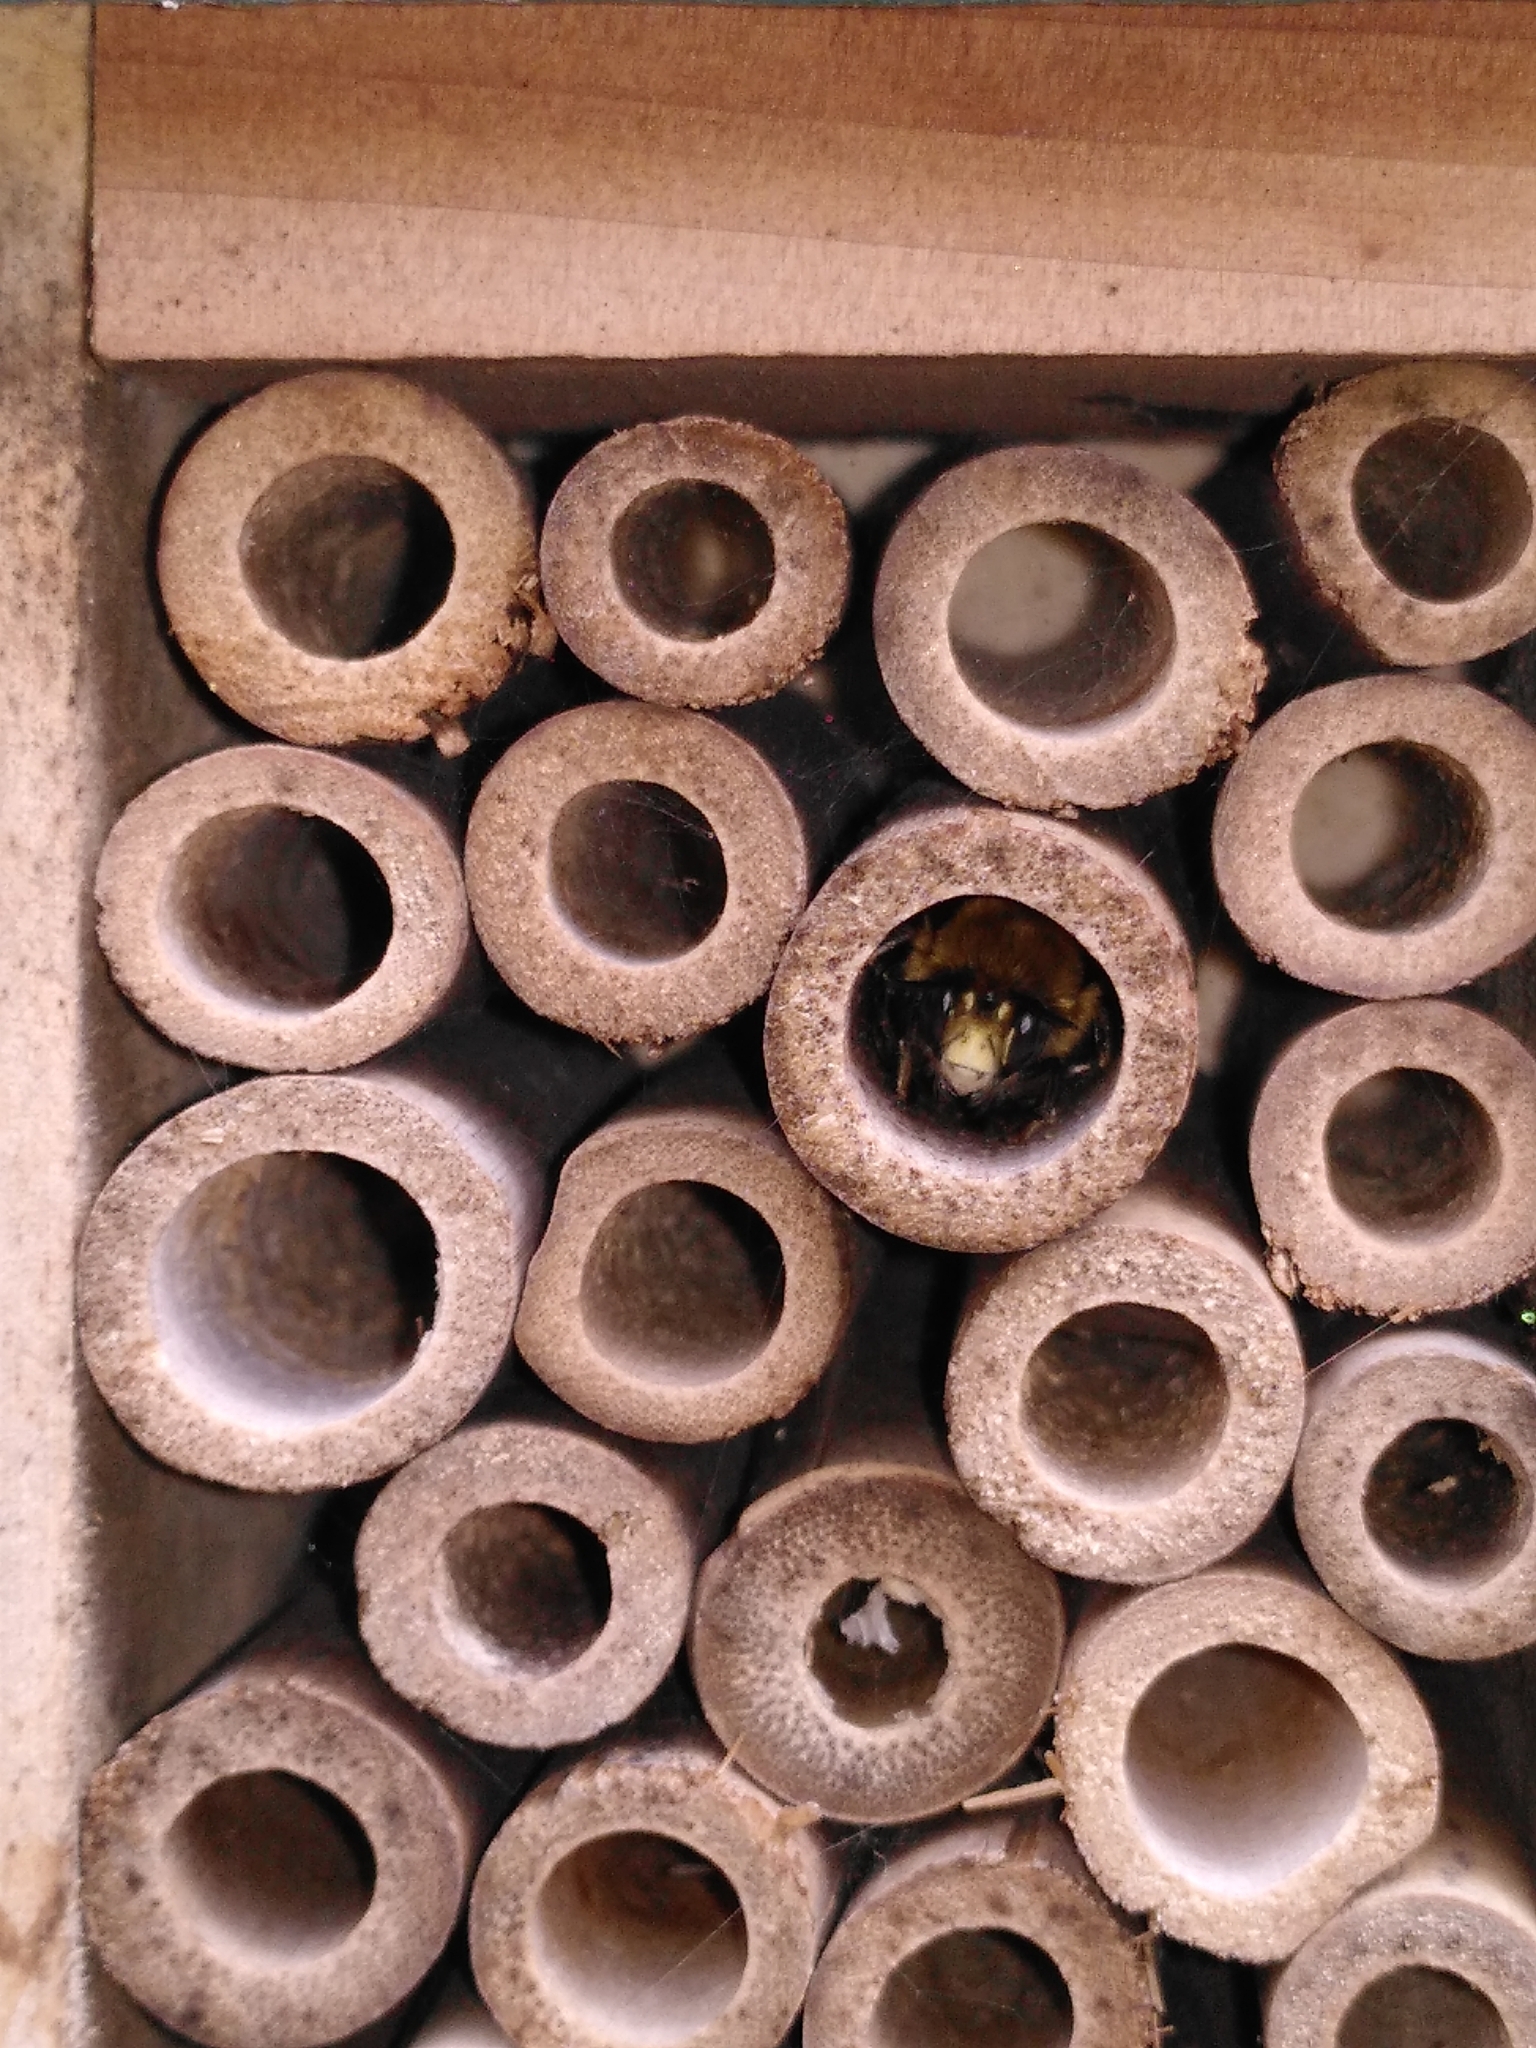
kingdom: Animalia
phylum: Arthropoda
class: Insecta
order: Hymenoptera
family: Apidae
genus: Anthophora
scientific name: Anthophora plumipes
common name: Hairy-footed flower bee
